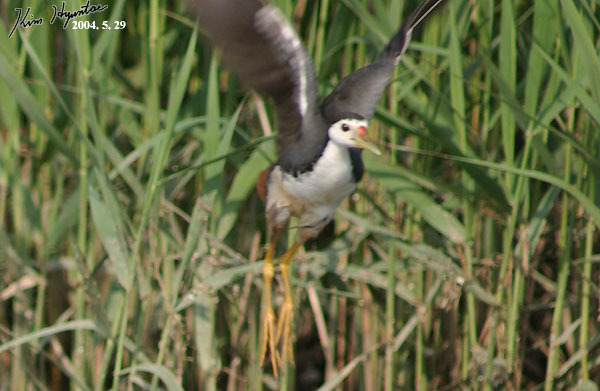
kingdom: Animalia
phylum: Chordata
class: Aves
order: Gruiformes
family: Rallidae
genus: Amaurornis
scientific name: Amaurornis phoenicurus
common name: White-breasted waterhen
